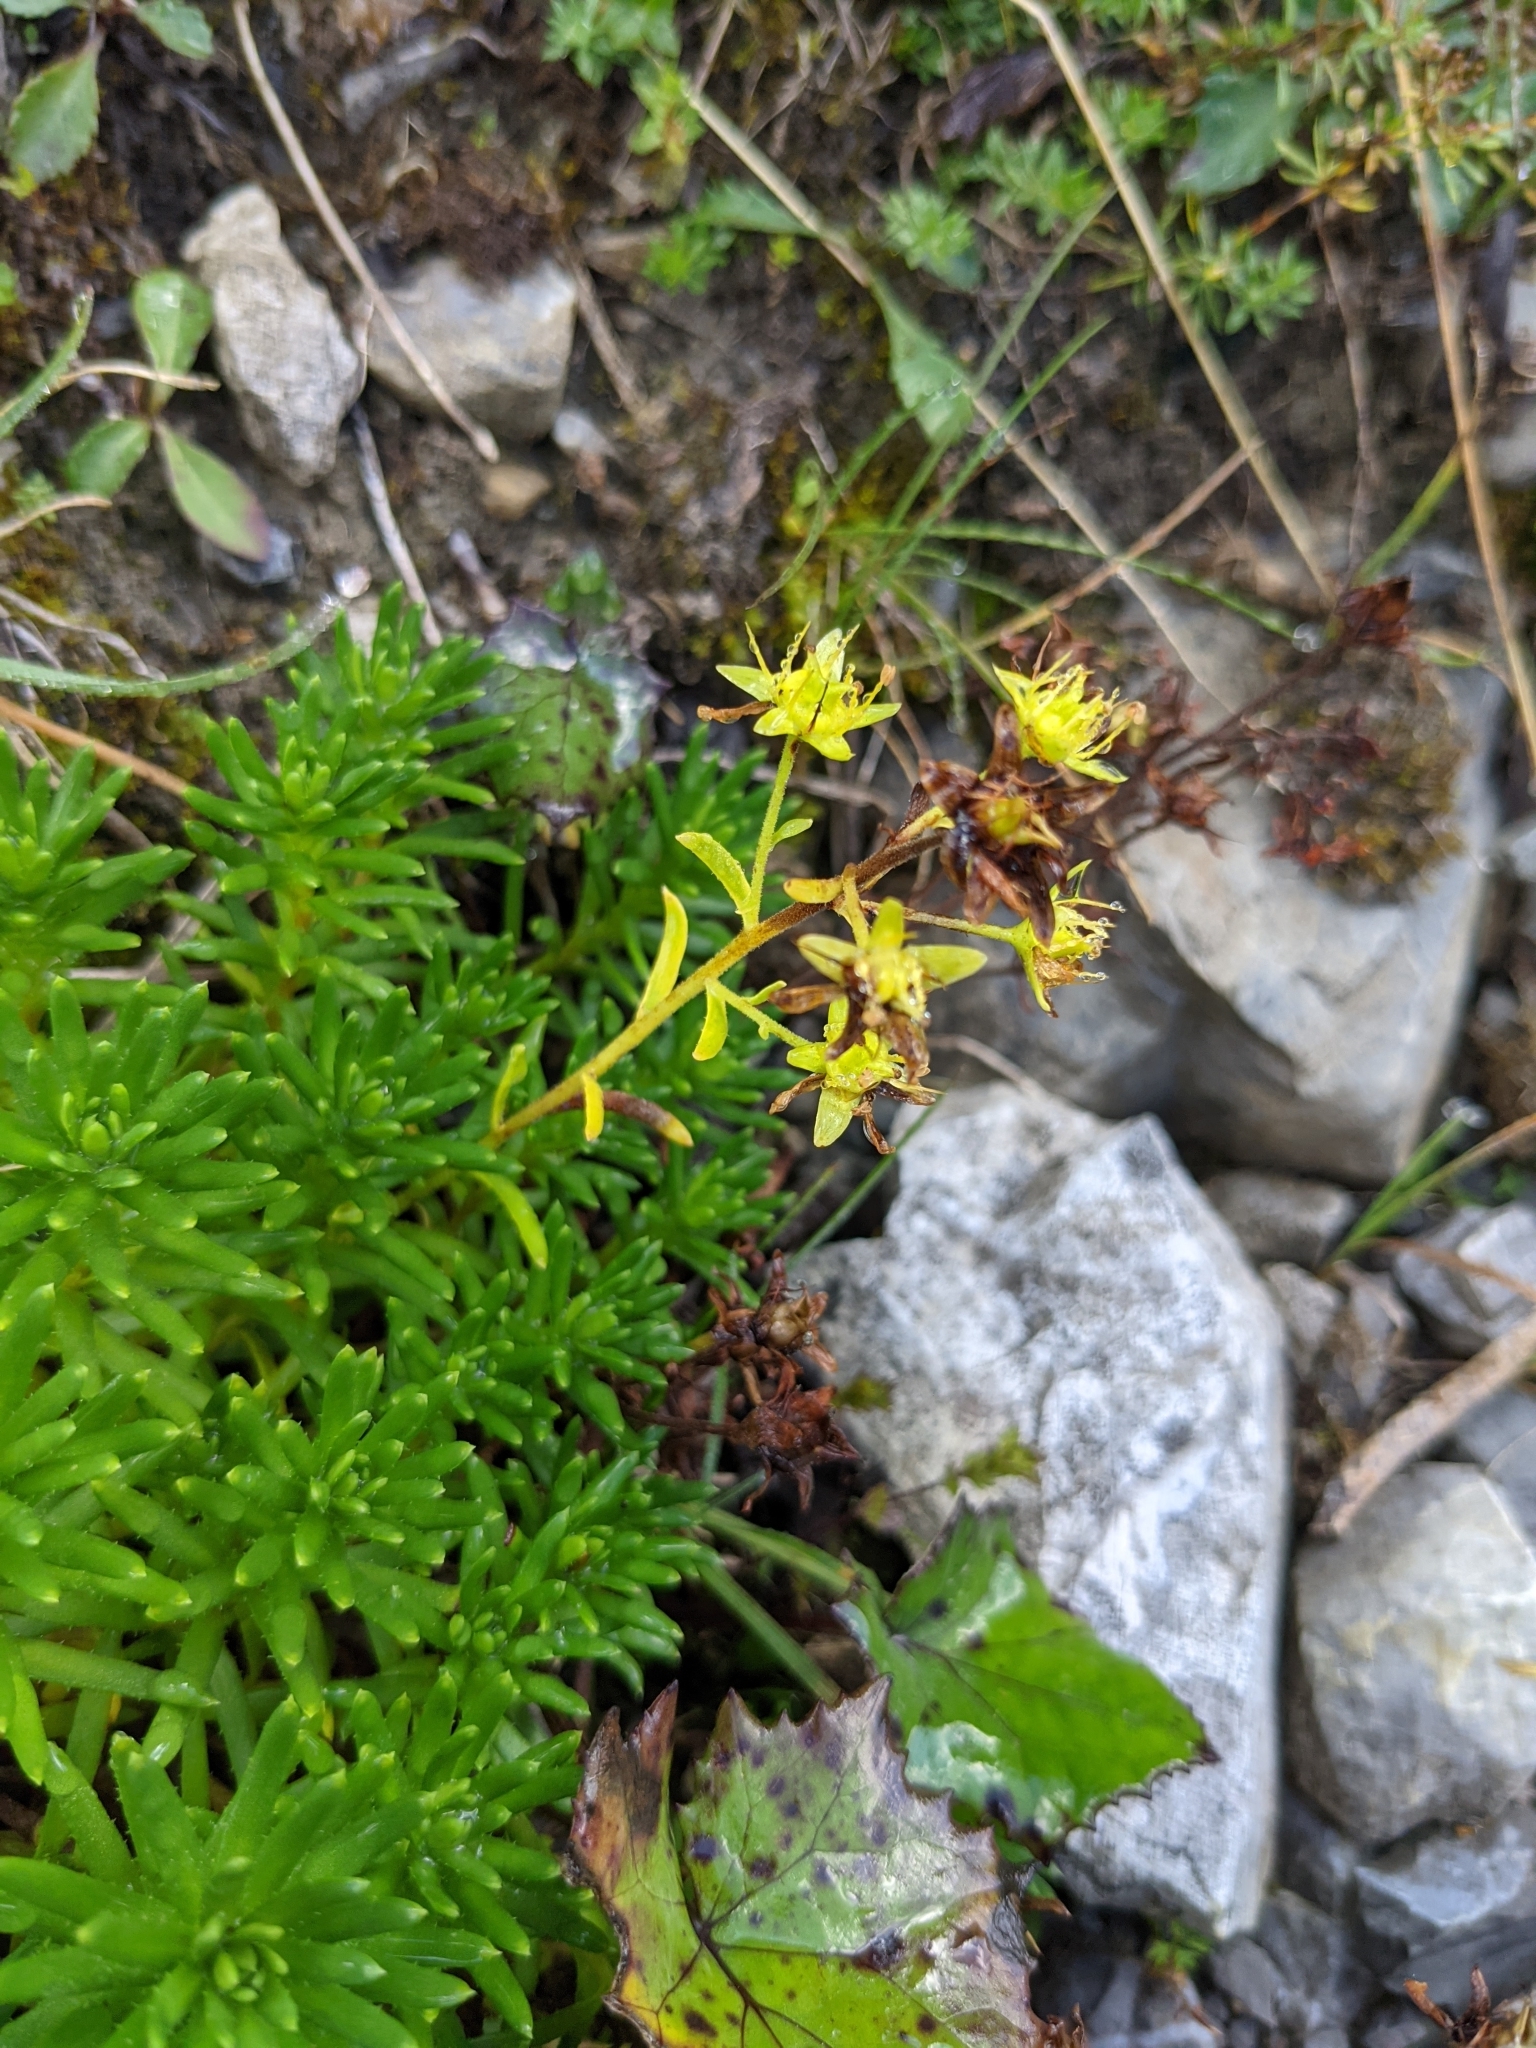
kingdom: Plantae
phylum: Tracheophyta
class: Magnoliopsida
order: Saxifragales
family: Saxifragaceae
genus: Saxifraga
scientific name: Saxifraga aizoides
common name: Yellow mountain saxifrage
